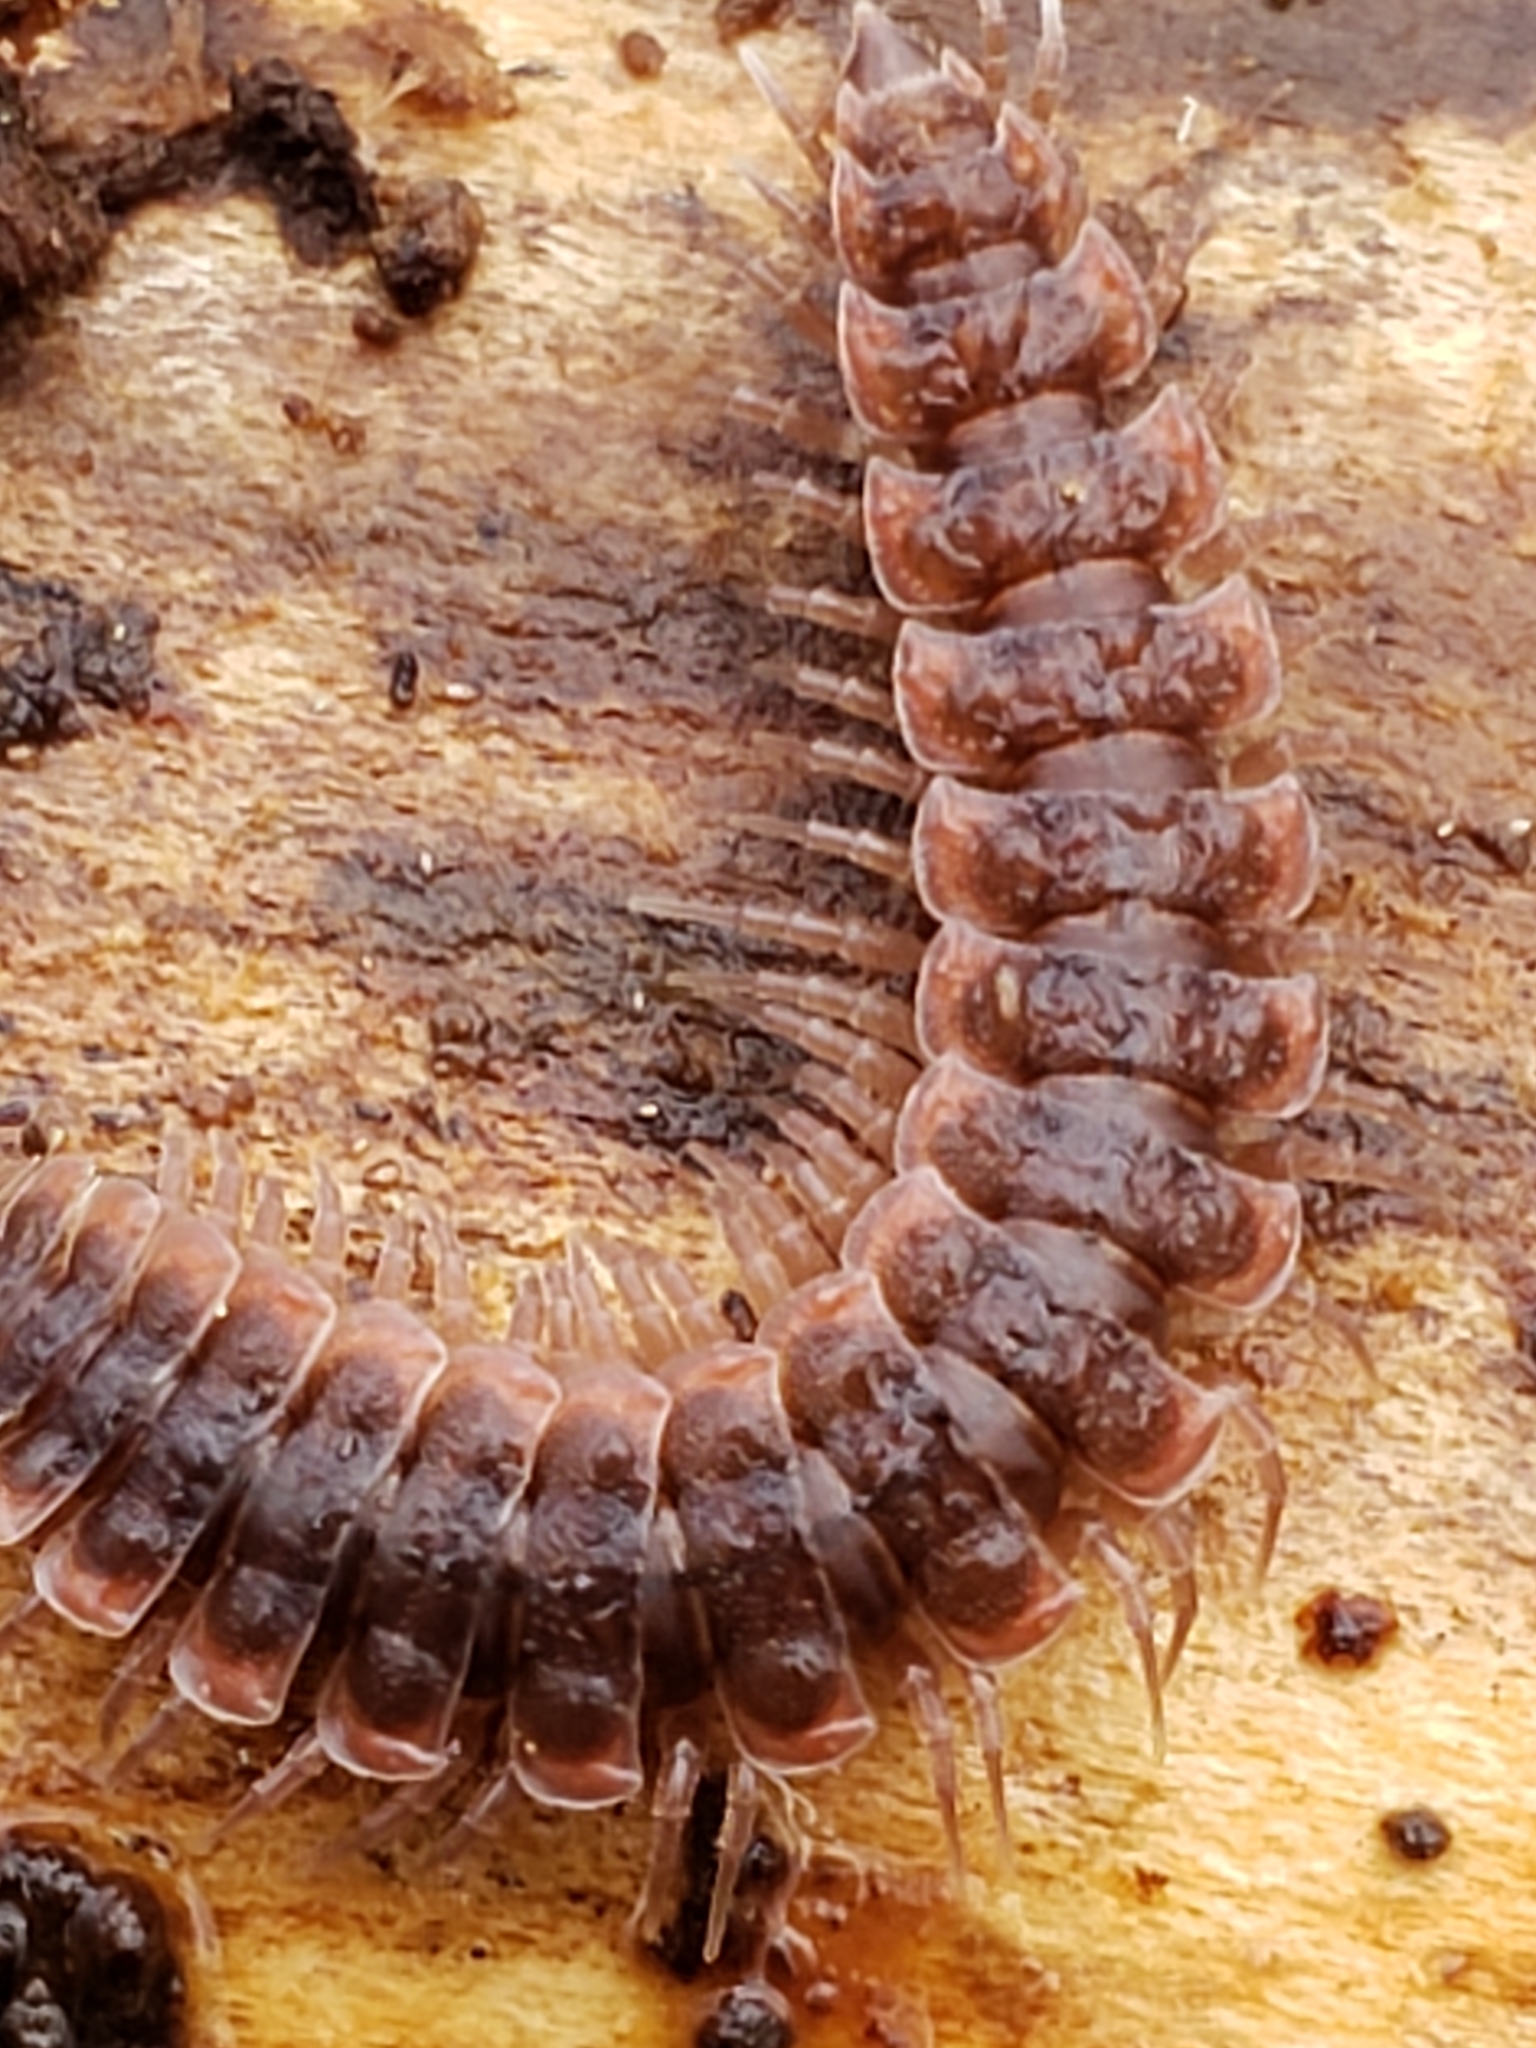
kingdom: Animalia
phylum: Arthropoda
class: Diplopoda
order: Polydesmida
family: Polydesmidae
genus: Pseudopolydesmus
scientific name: Pseudopolydesmus serratus
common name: Common pink flat-back millipede
